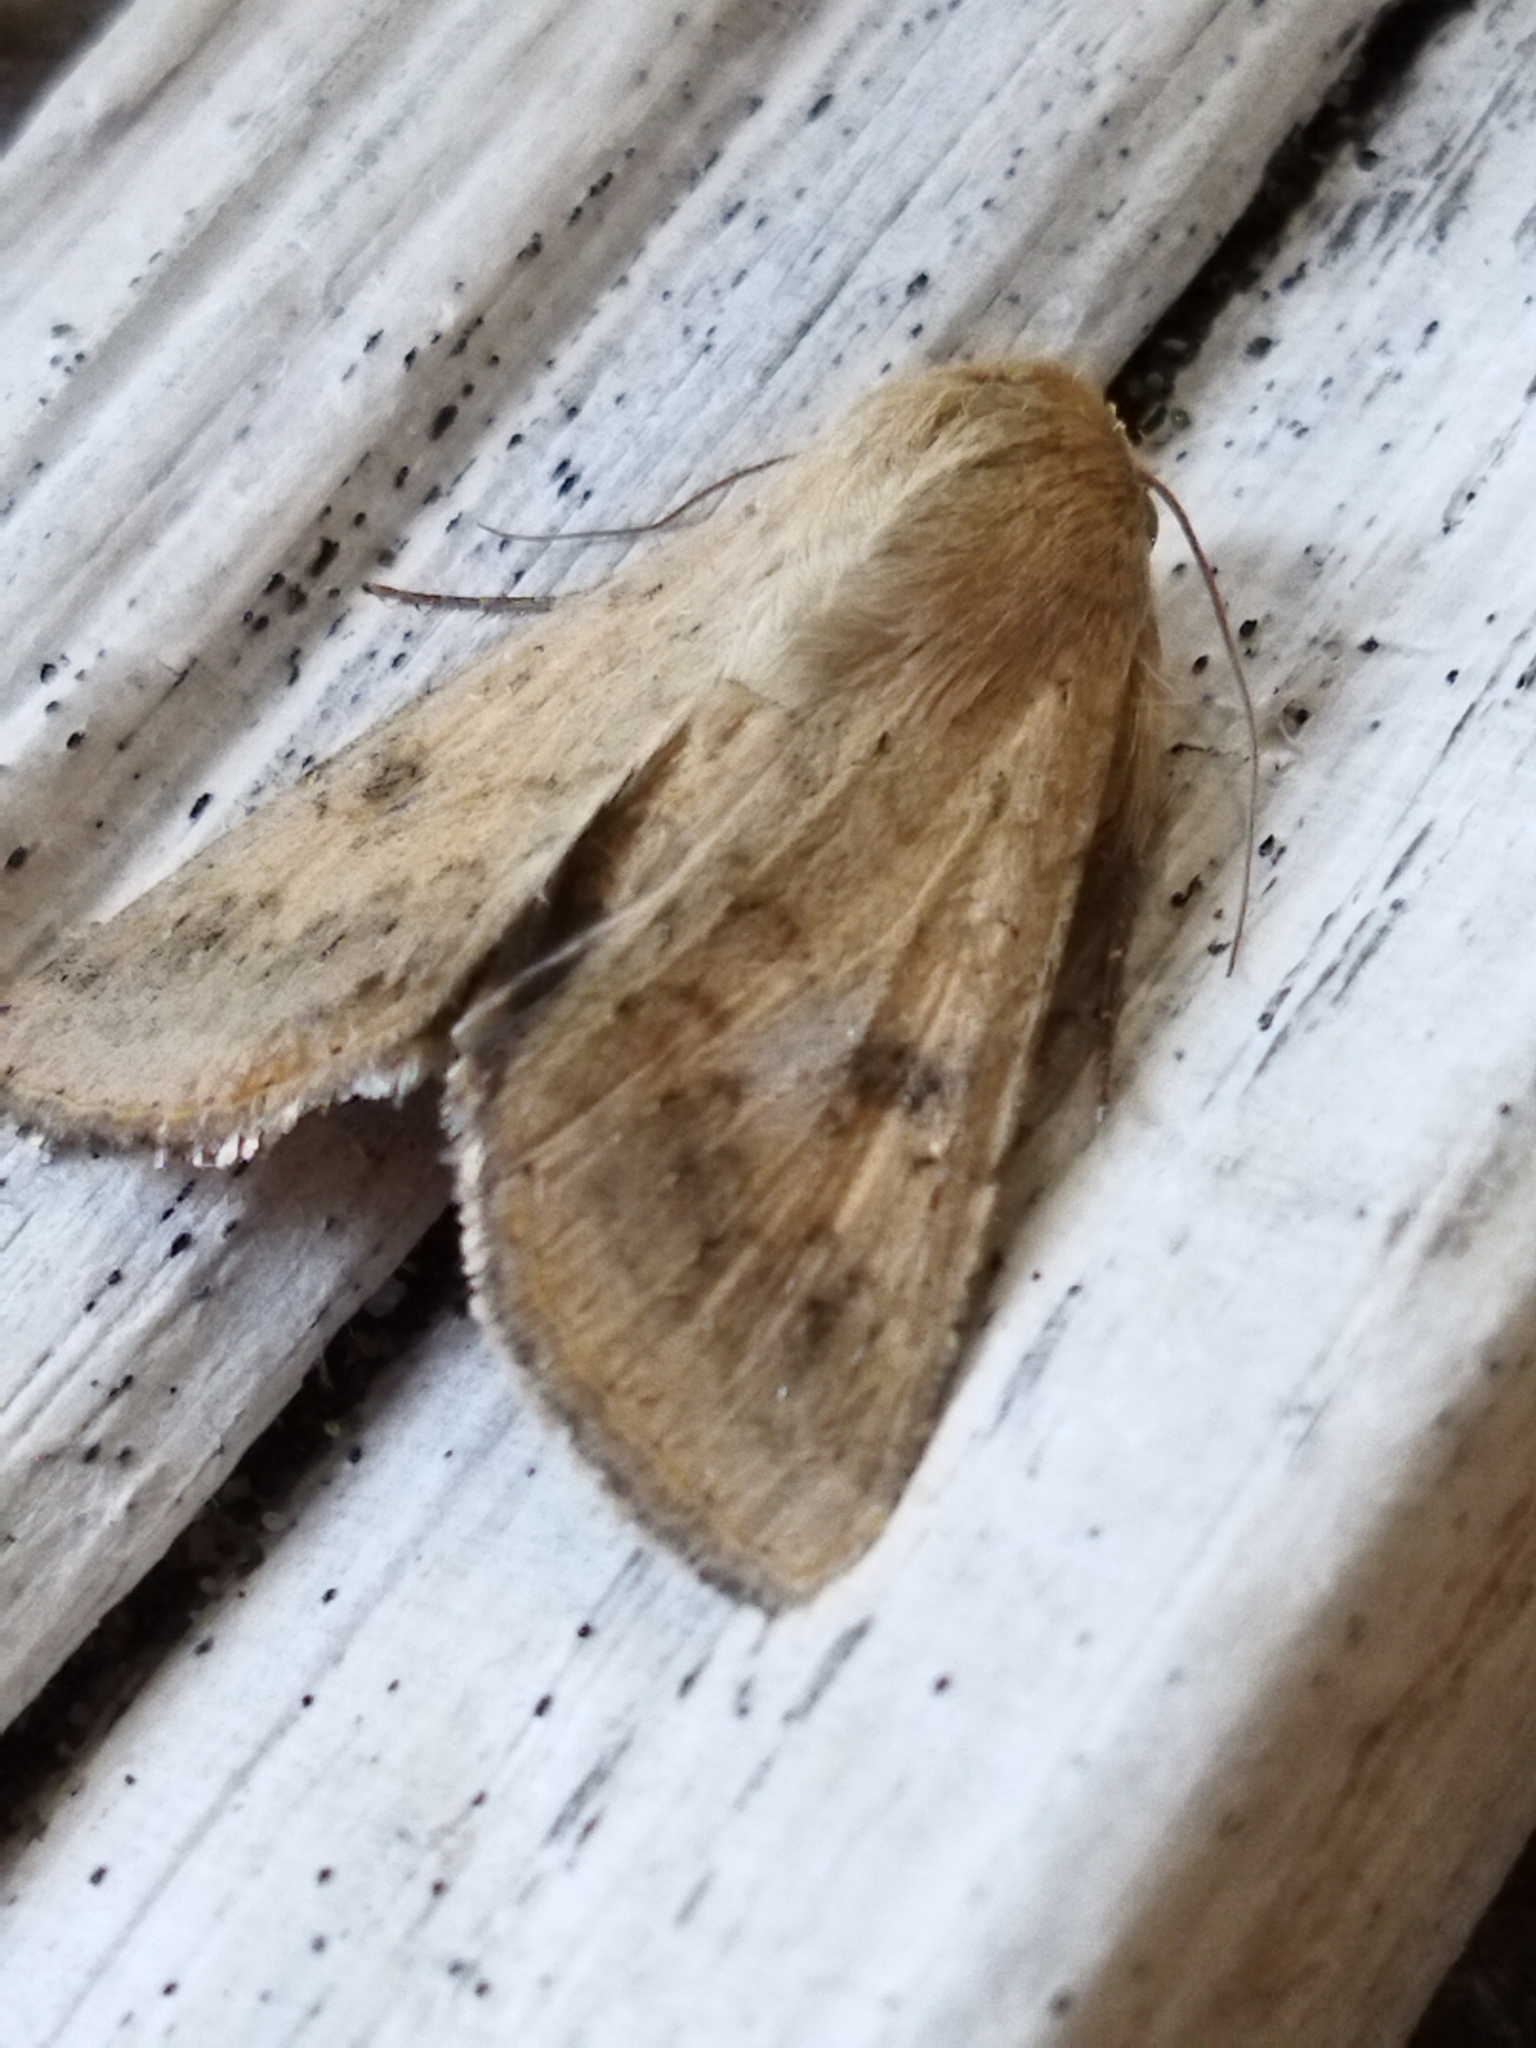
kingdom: Animalia
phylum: Arthropoda
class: Insecta
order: Lepidoptera
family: Noctuidae
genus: Helicoverpa
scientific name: Helicoverpa armigera
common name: Cotton bollworm
